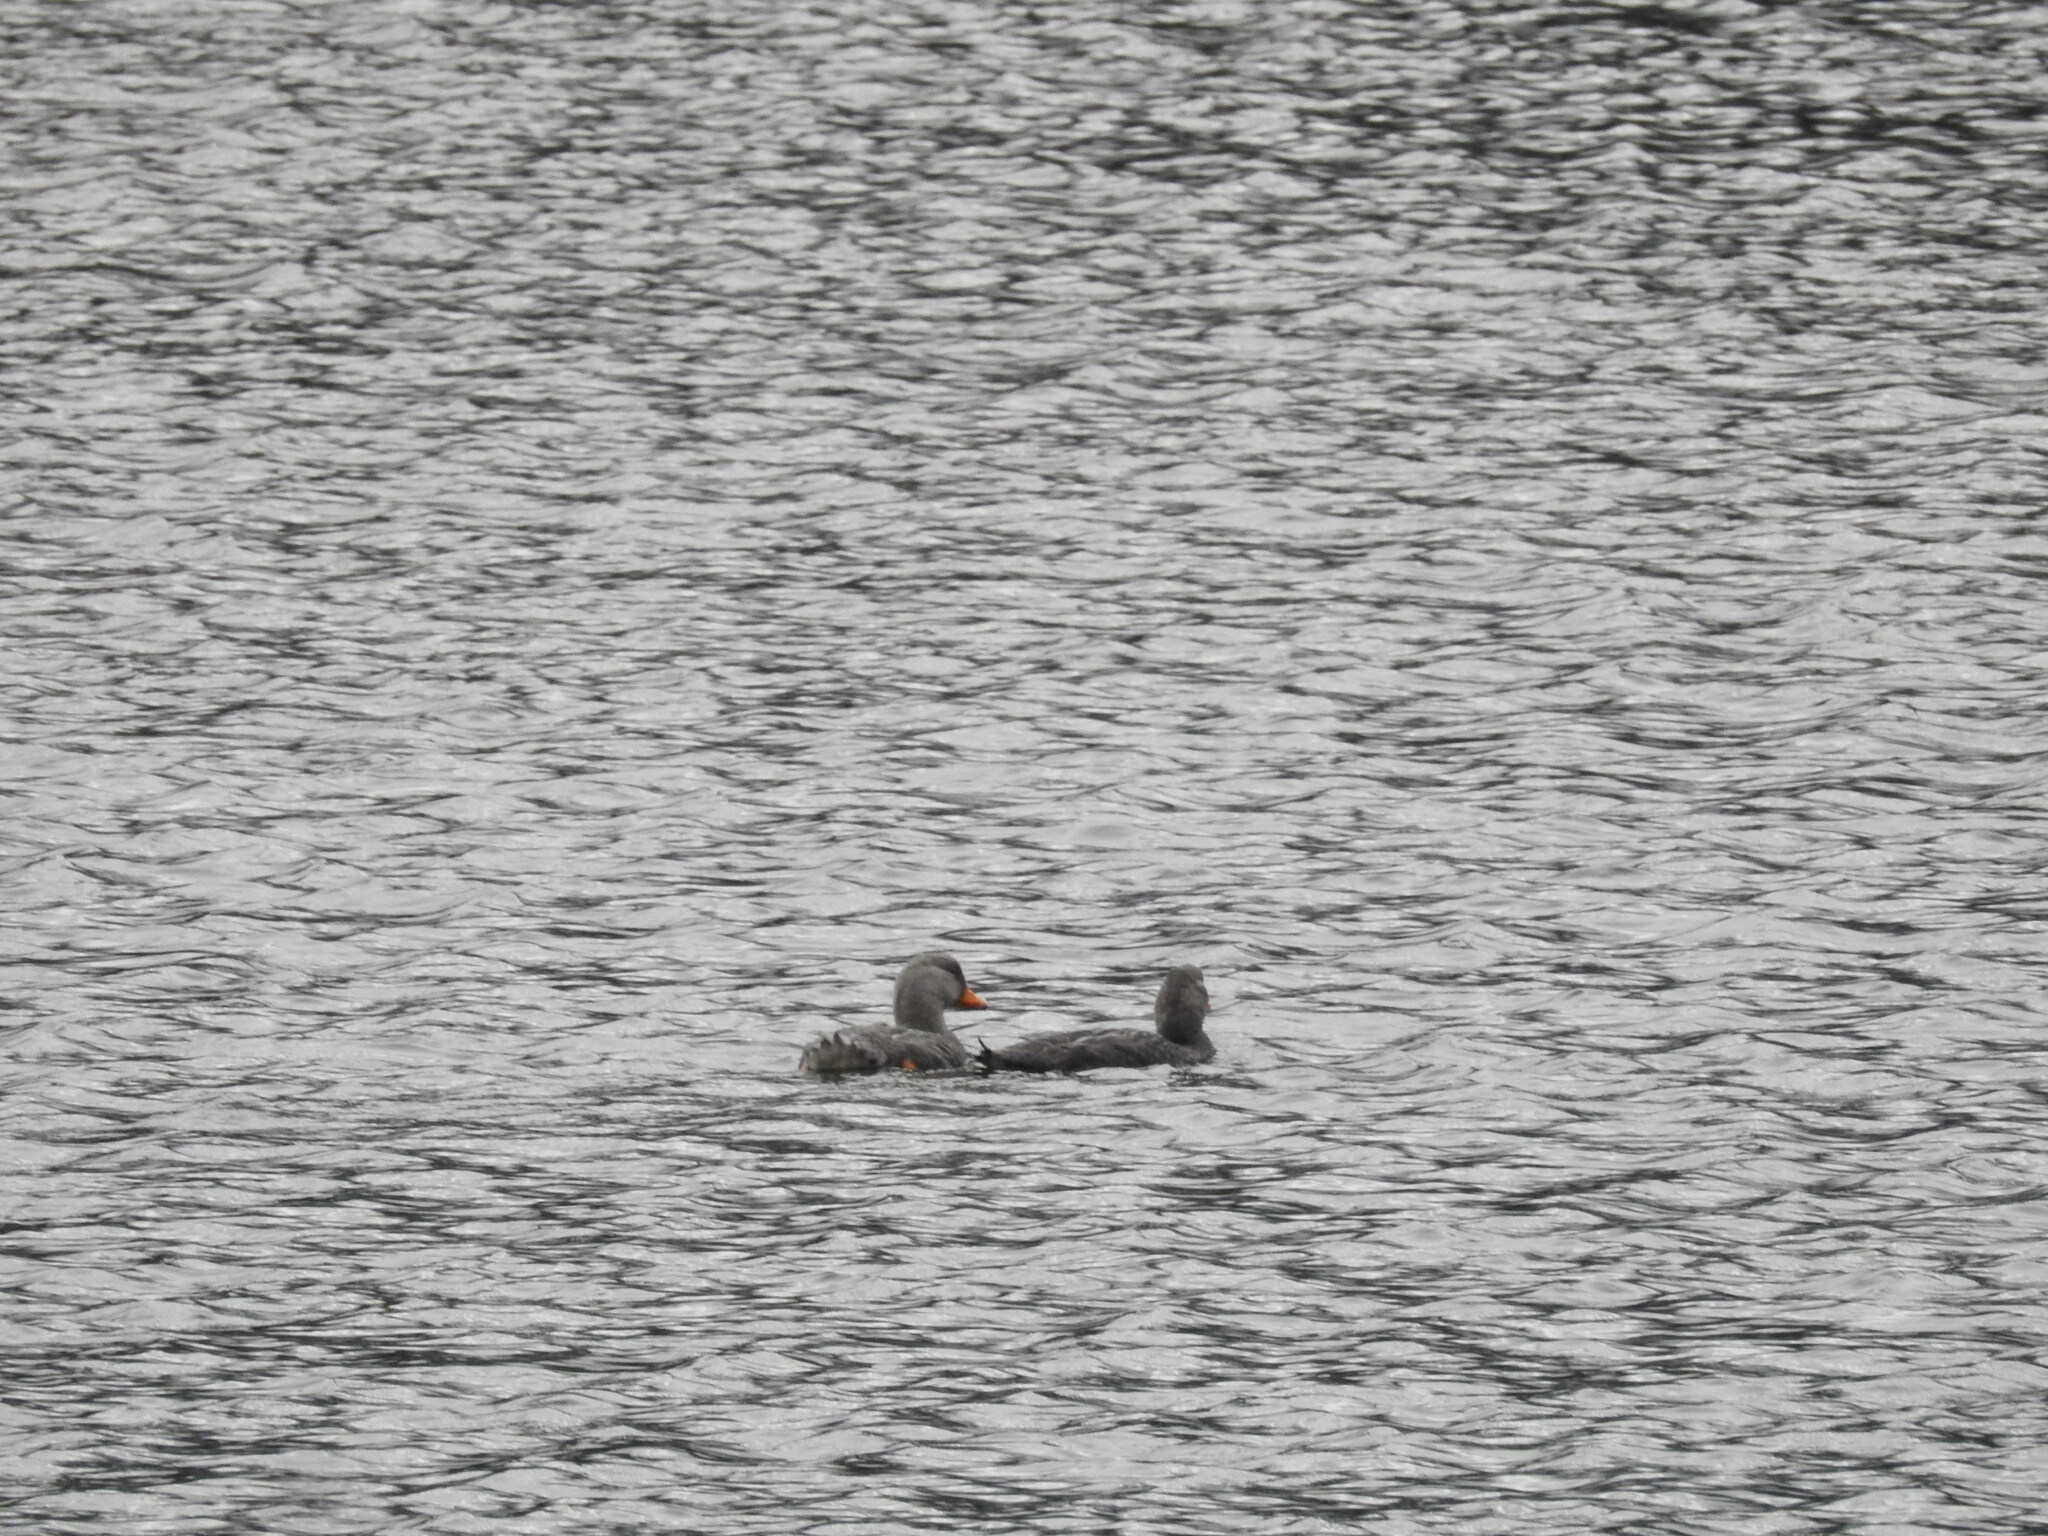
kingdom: Animalia
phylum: Chordata
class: Aves
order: Anseriformes
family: Anatidae
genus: Tachyeres
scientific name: Tachyeres pteneres
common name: Fuegian steamer duck
